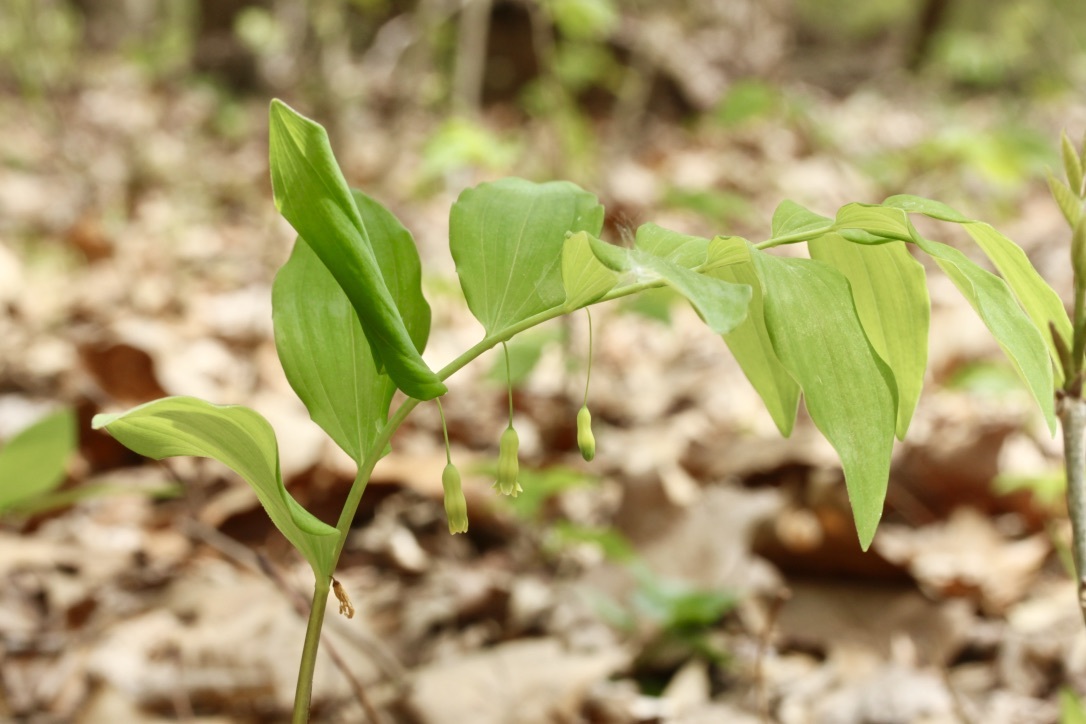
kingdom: Plantae
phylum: Tracheophyta
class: Liliopsida
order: Asparagales
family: Asparagaceae
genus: Polygonatum
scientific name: Polygonatum pubescens
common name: Downy solomon's seal
